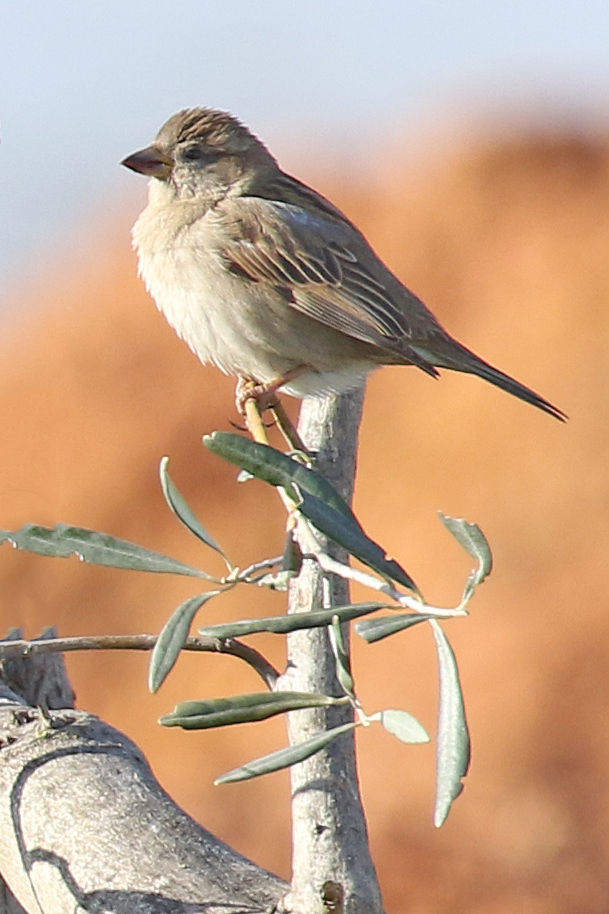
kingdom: Animalia
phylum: Chordata
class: Aves
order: Passeriformes
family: Passeridae
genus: Passer
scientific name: Passer domesticus
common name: House sparrow
